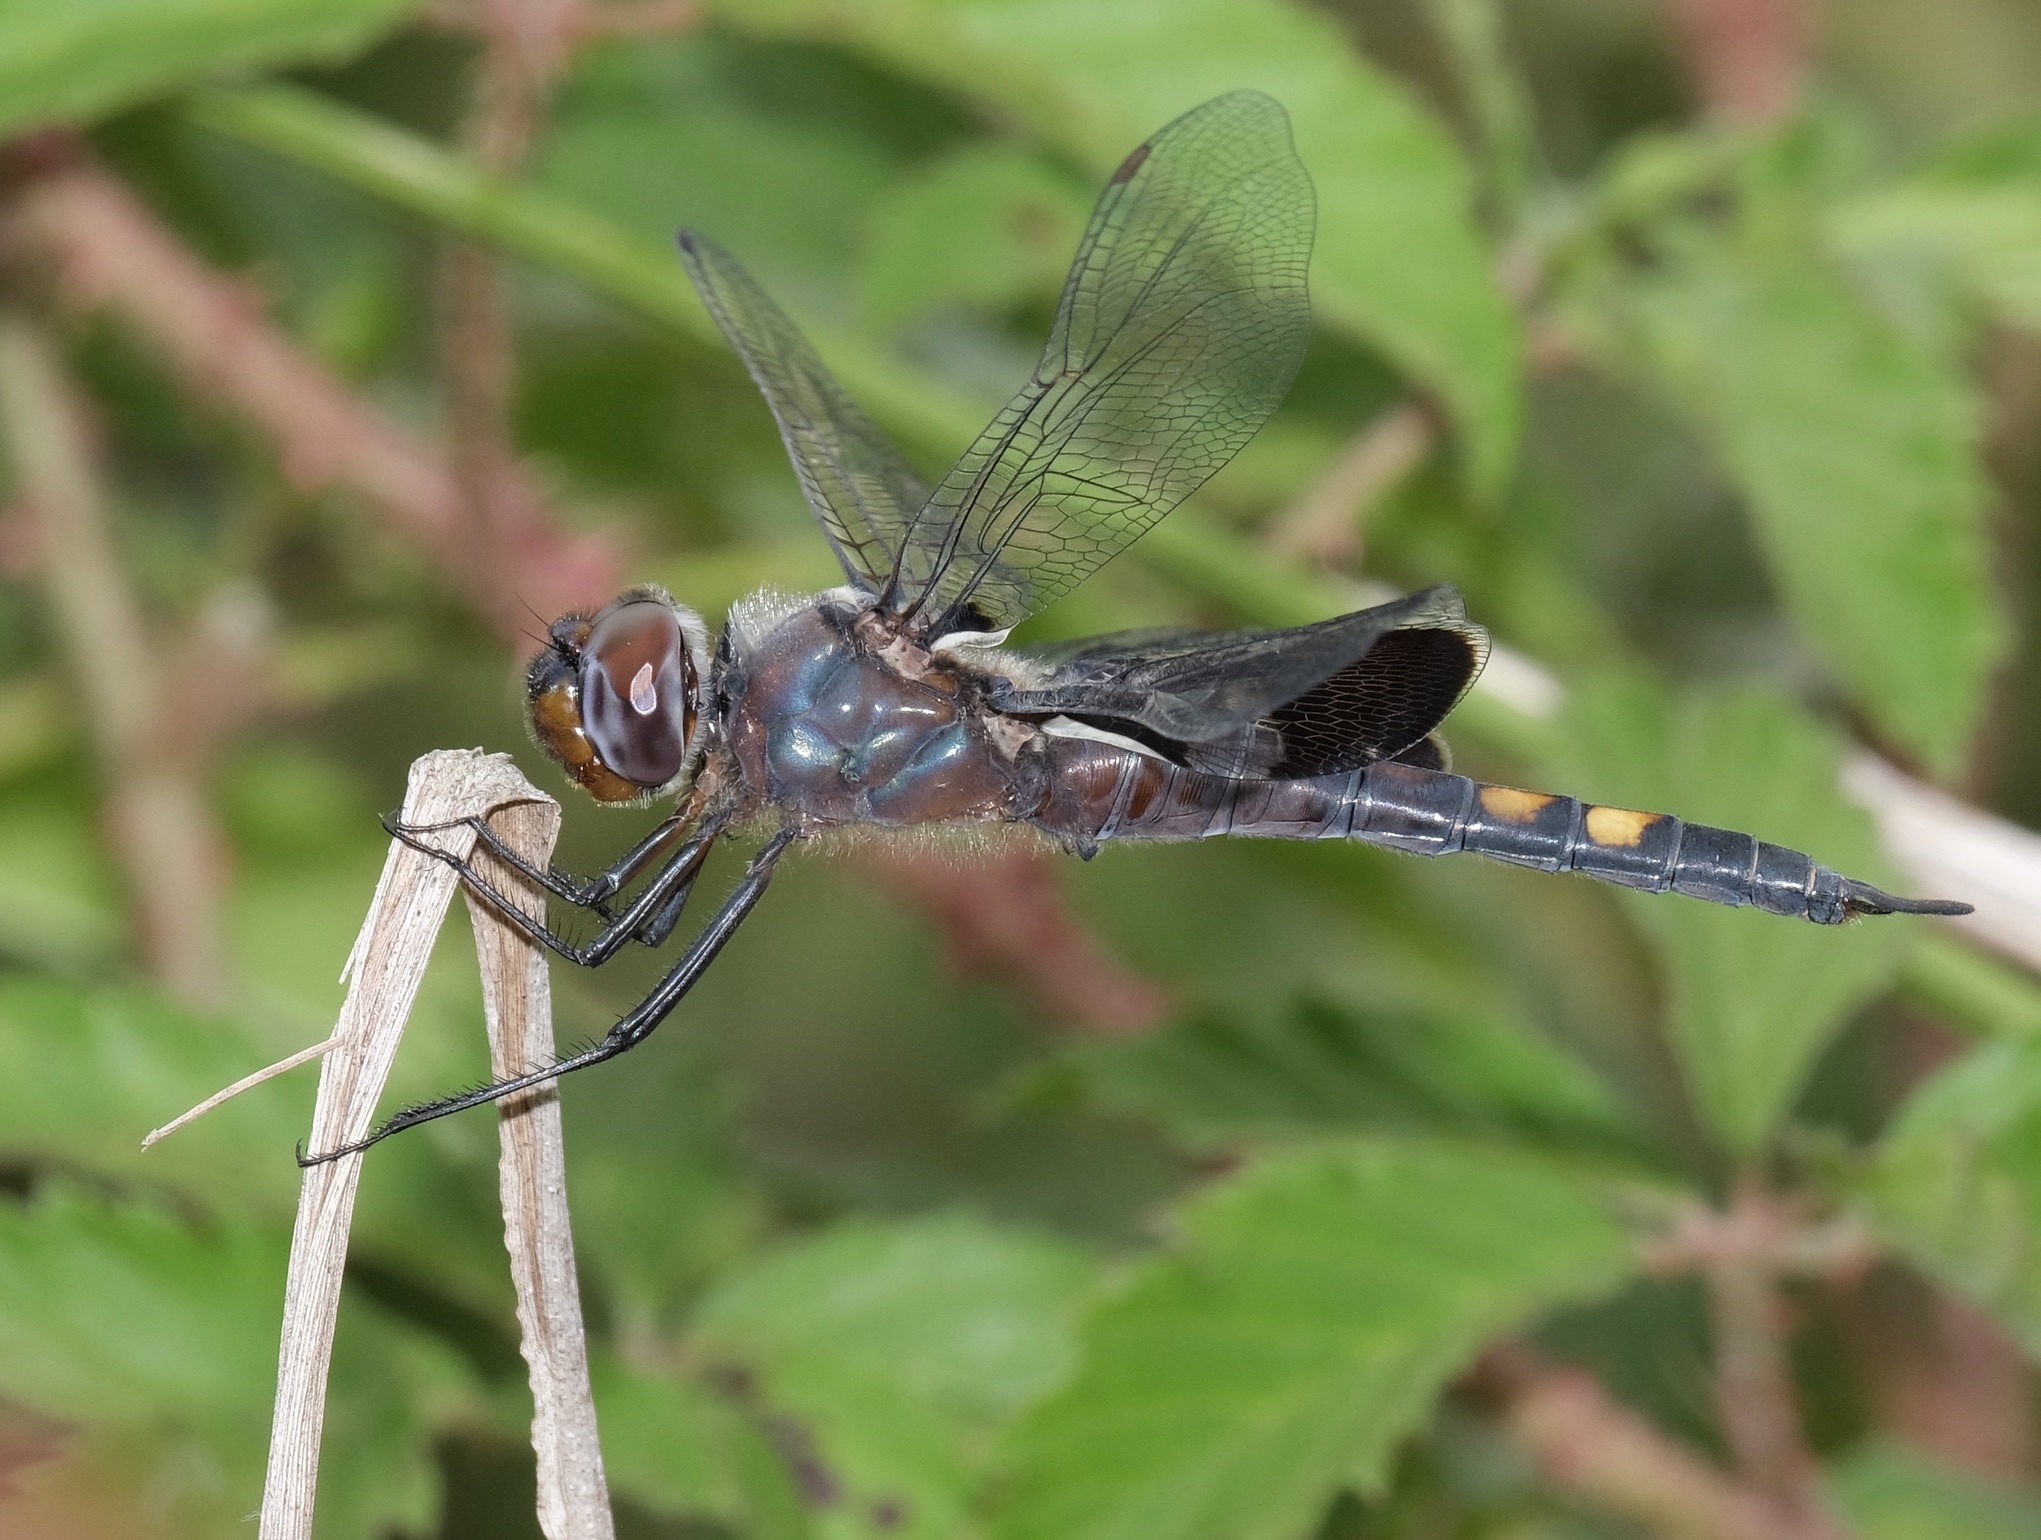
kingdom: Animalia
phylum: Arthropoda
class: Insecta
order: Odonata
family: Libellulidae
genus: Tramea
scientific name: Tramea lacerata
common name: Black saddlebags
